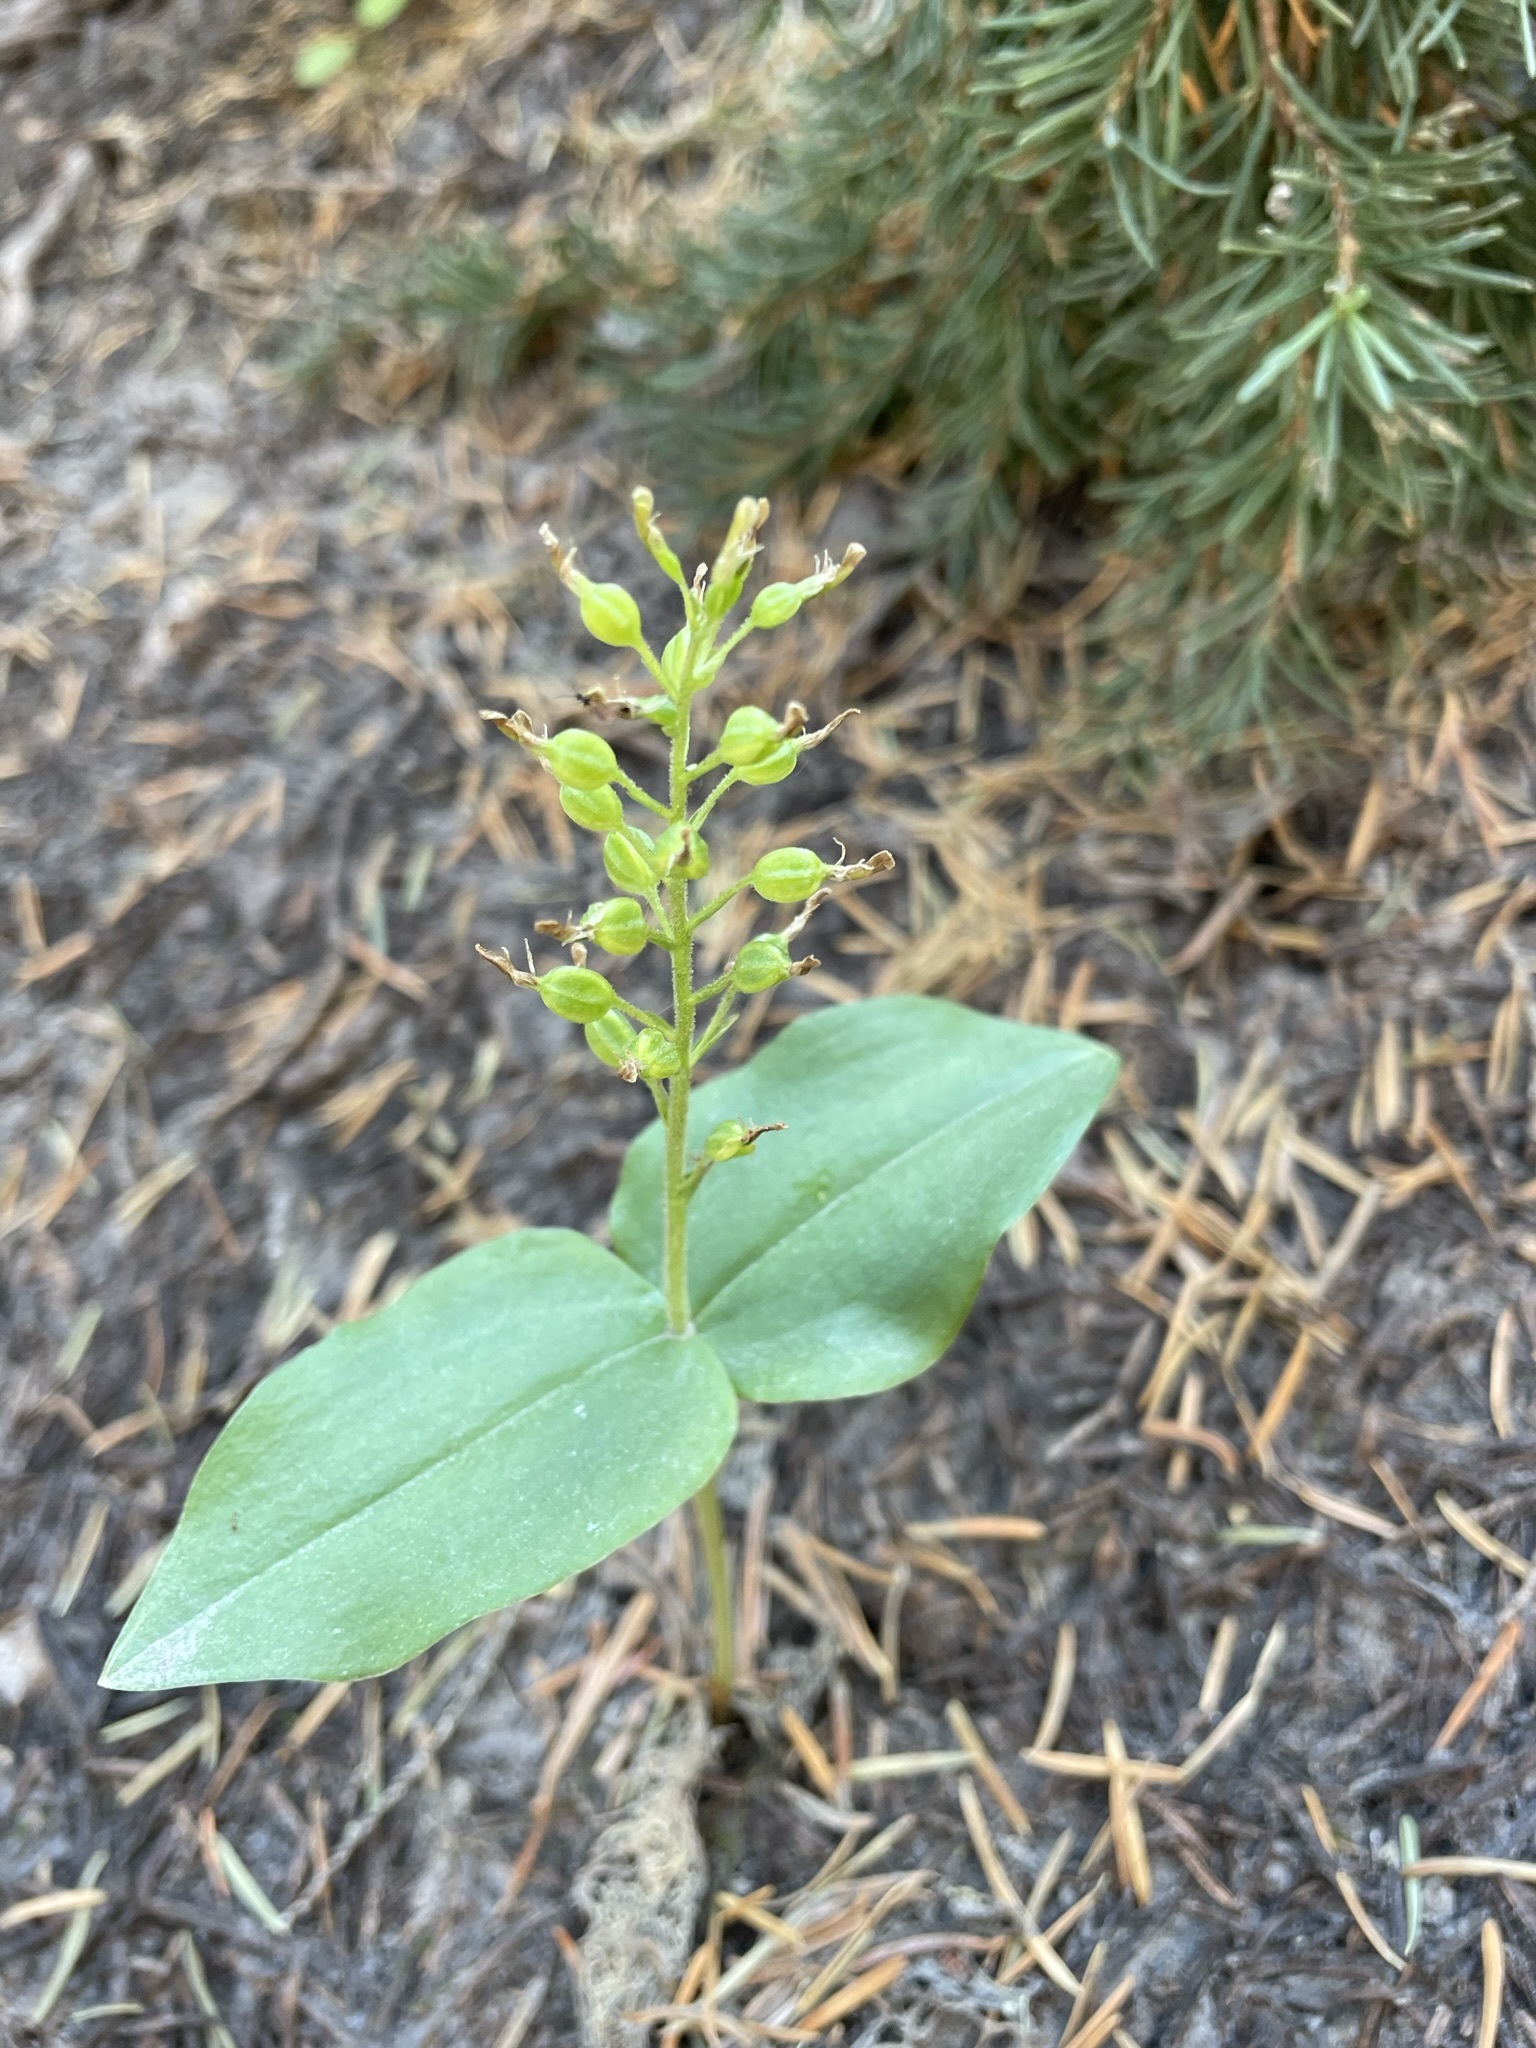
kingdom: Plantae
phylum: Tracheophyta
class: Liliopsida
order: Asparagales
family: Orchidaceae
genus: Neottia
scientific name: Neottia banksiana
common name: Northwestern twayblade
